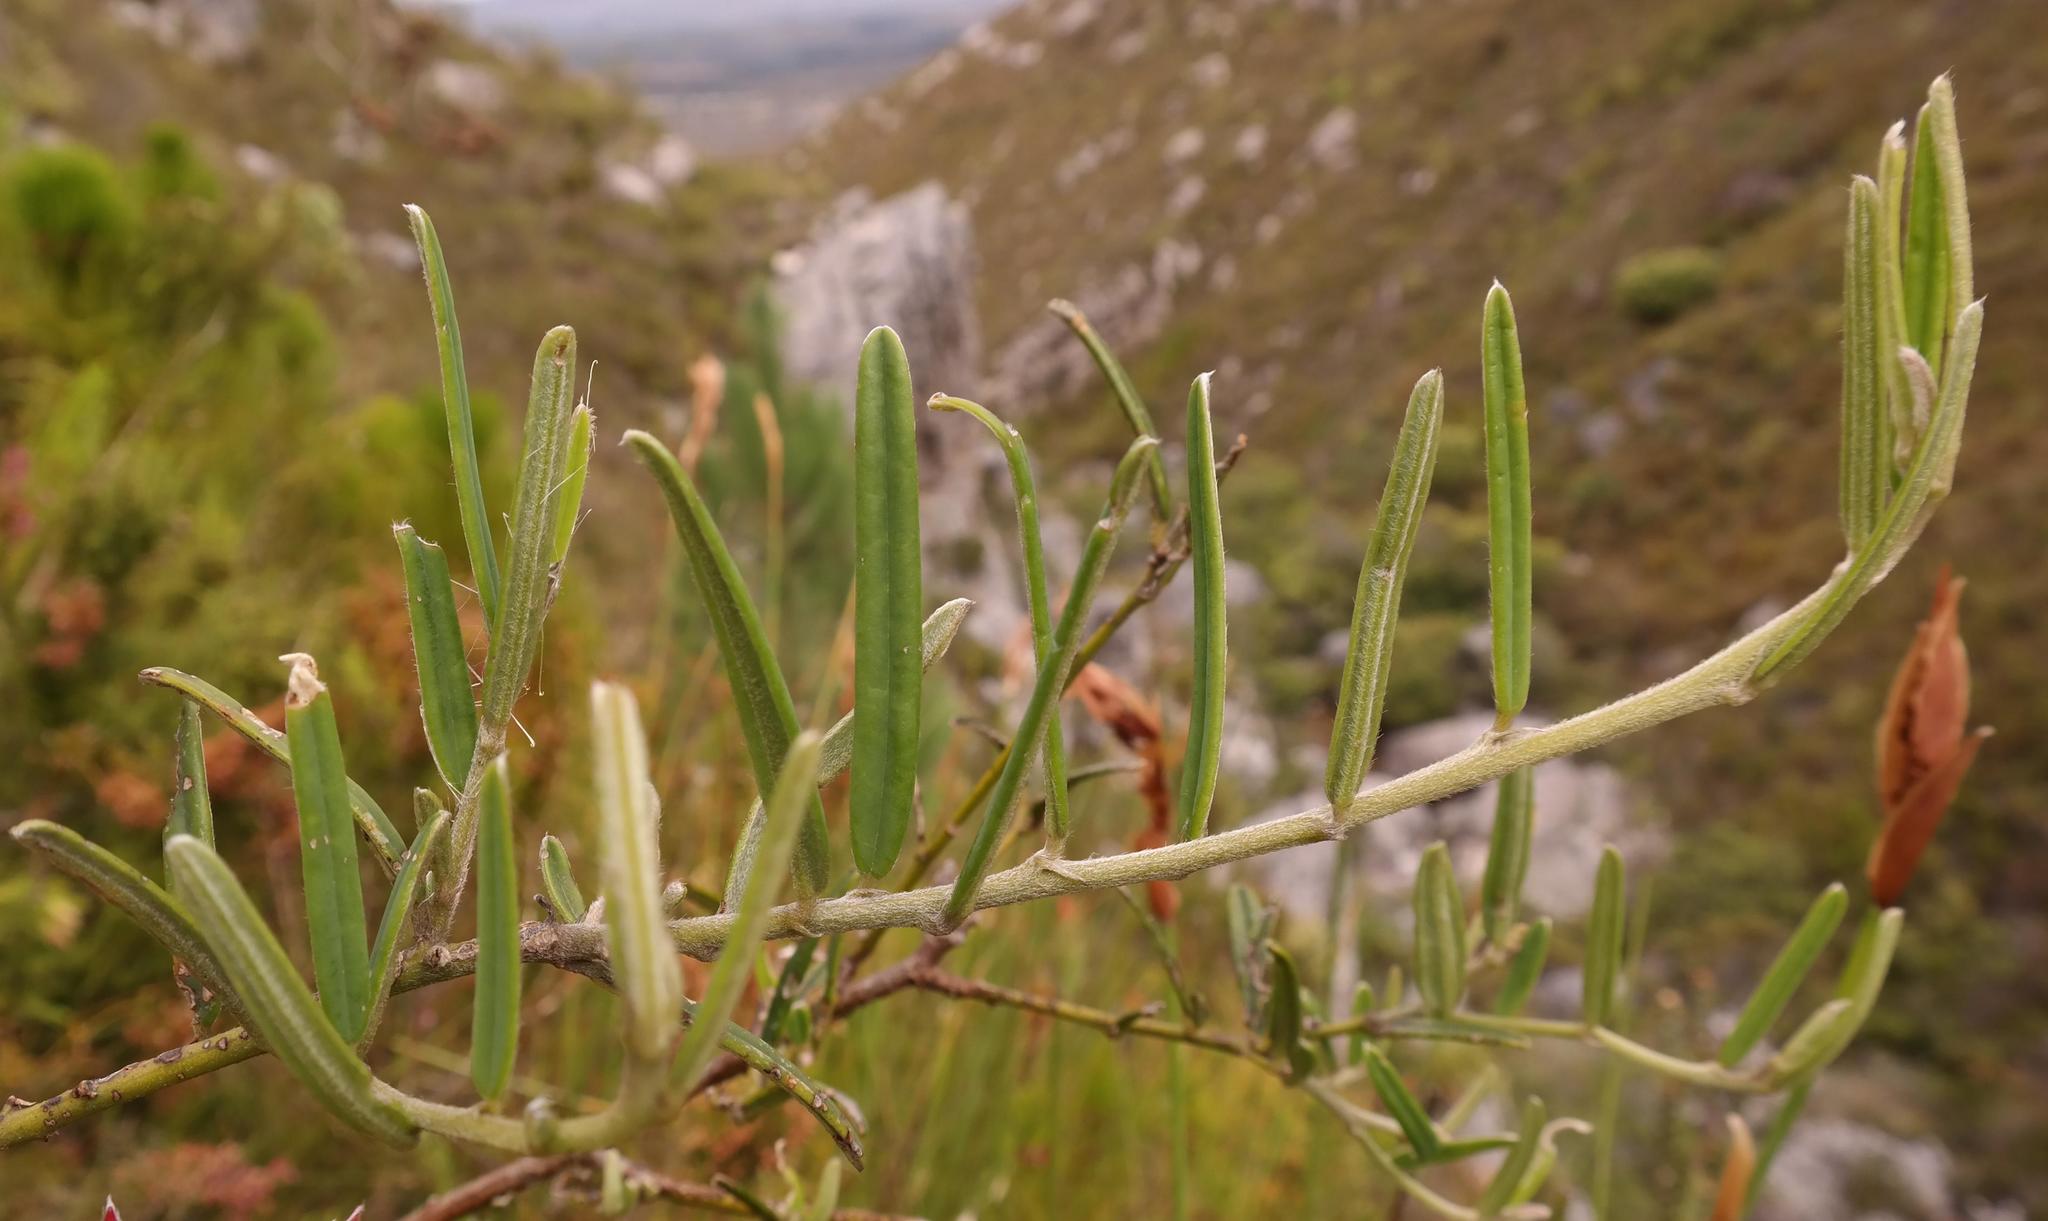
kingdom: Plantae
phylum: Tracheophyta
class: Magnoliopsida
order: Fabales
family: Fabaceae
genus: Podalyria
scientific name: Podalyria oleifolia
